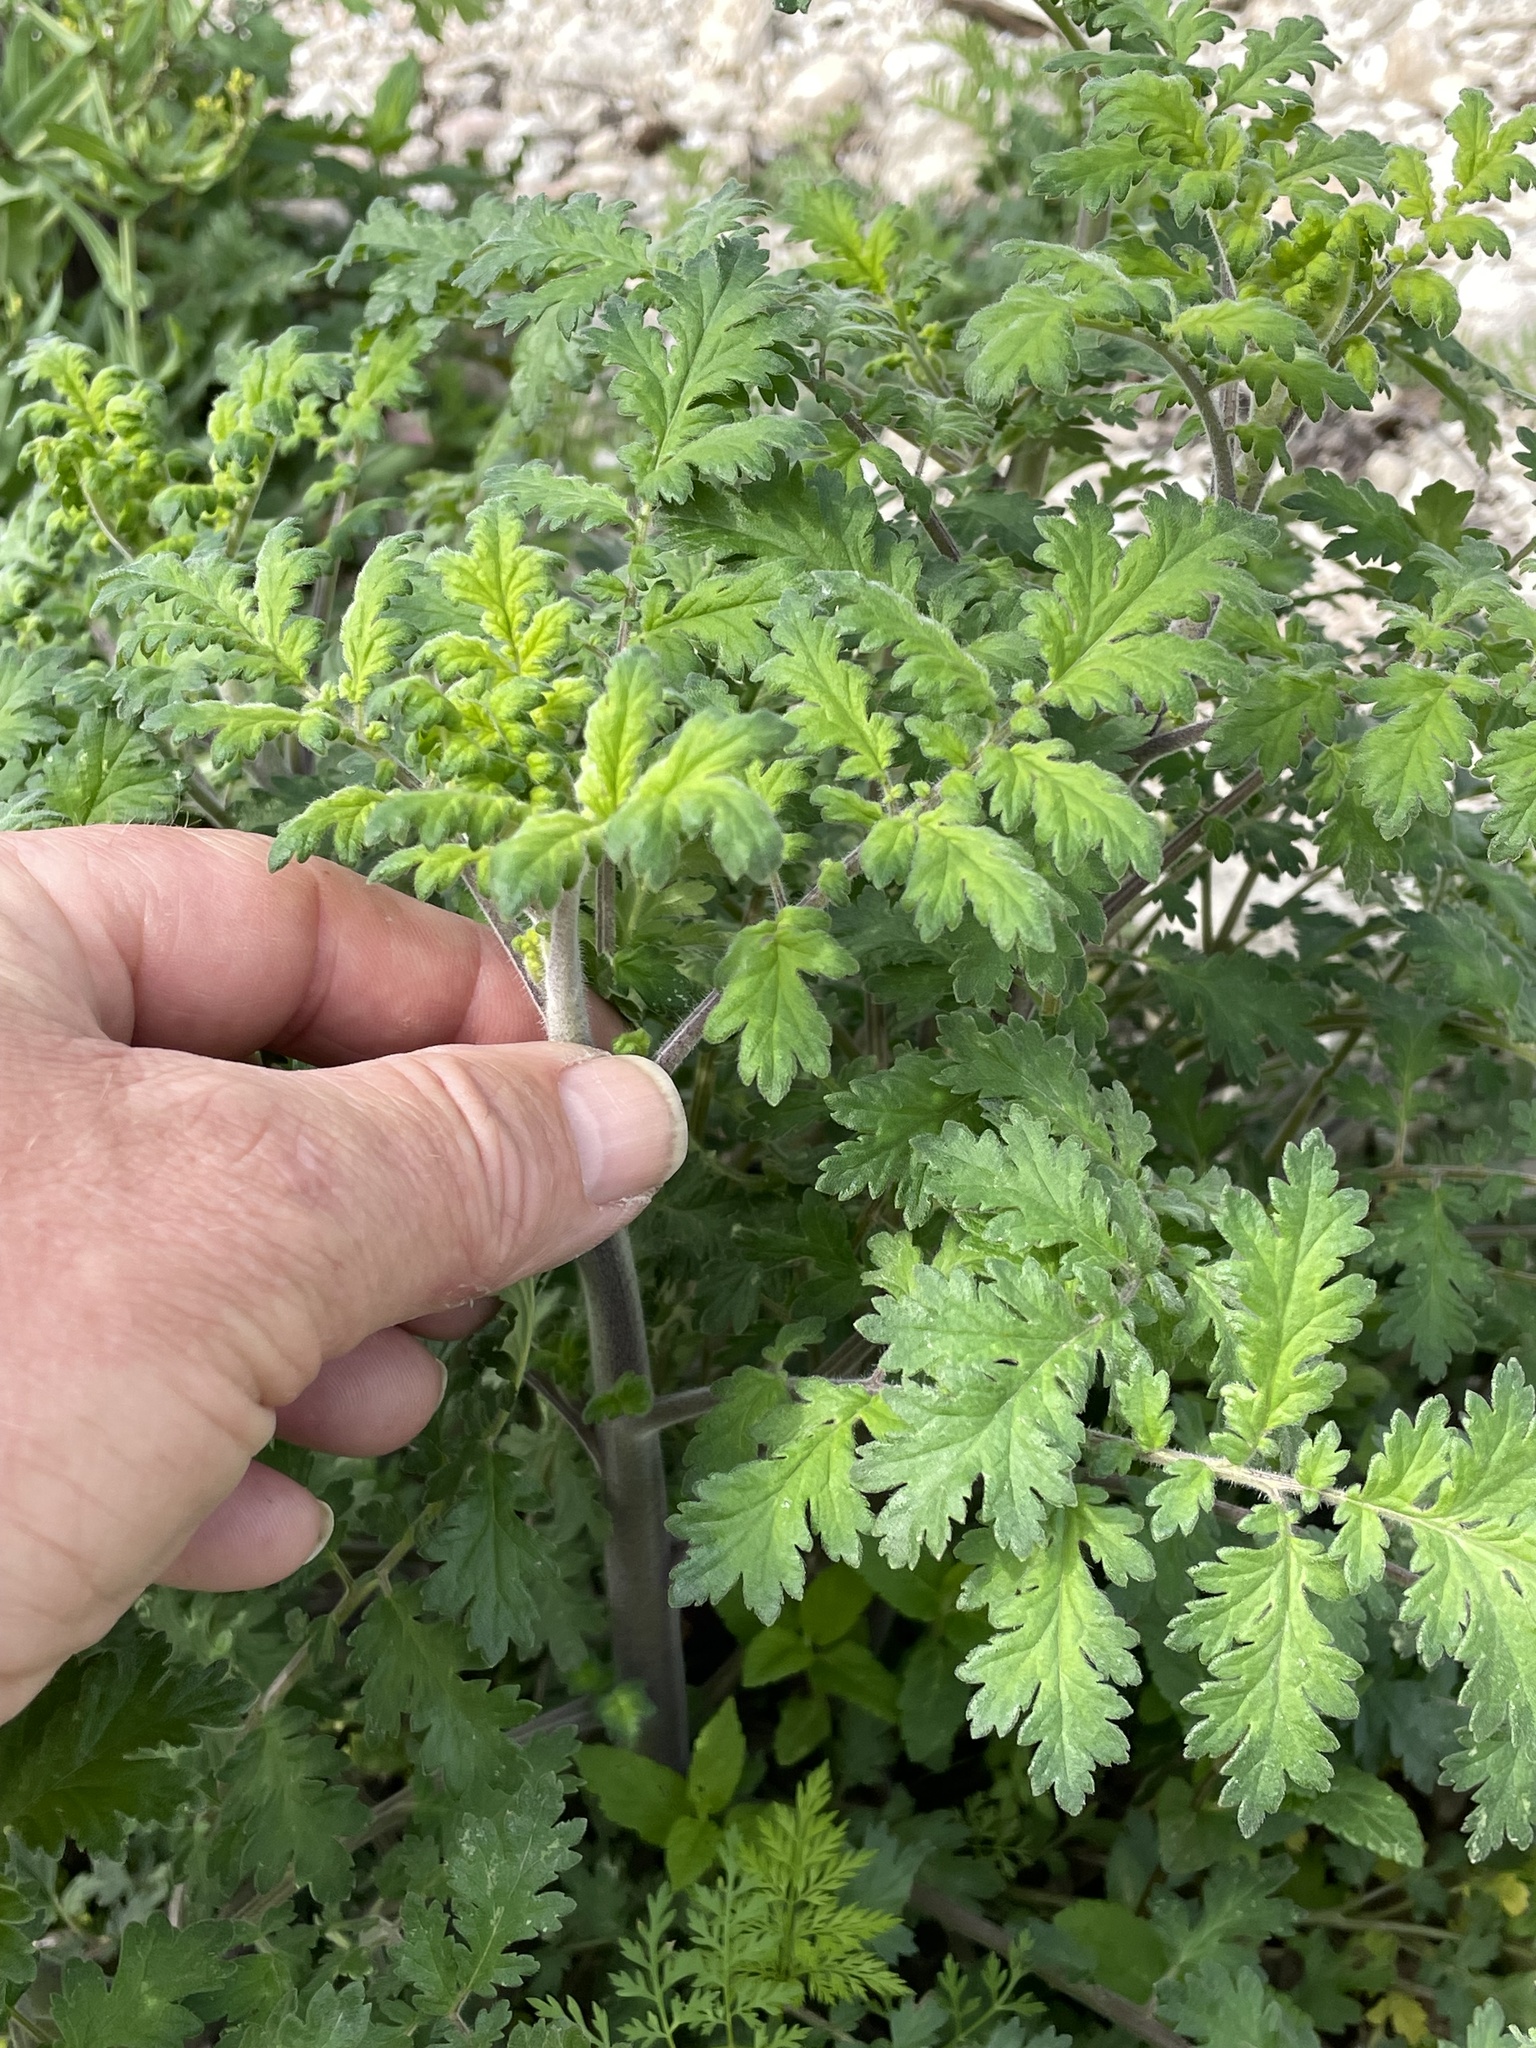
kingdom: Plantae
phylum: Tracheophyta
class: Magnoliopsida
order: Boraginales
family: Hydrophyllaceae
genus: Phacelia
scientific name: Phacelia congesta
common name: Blue curls
